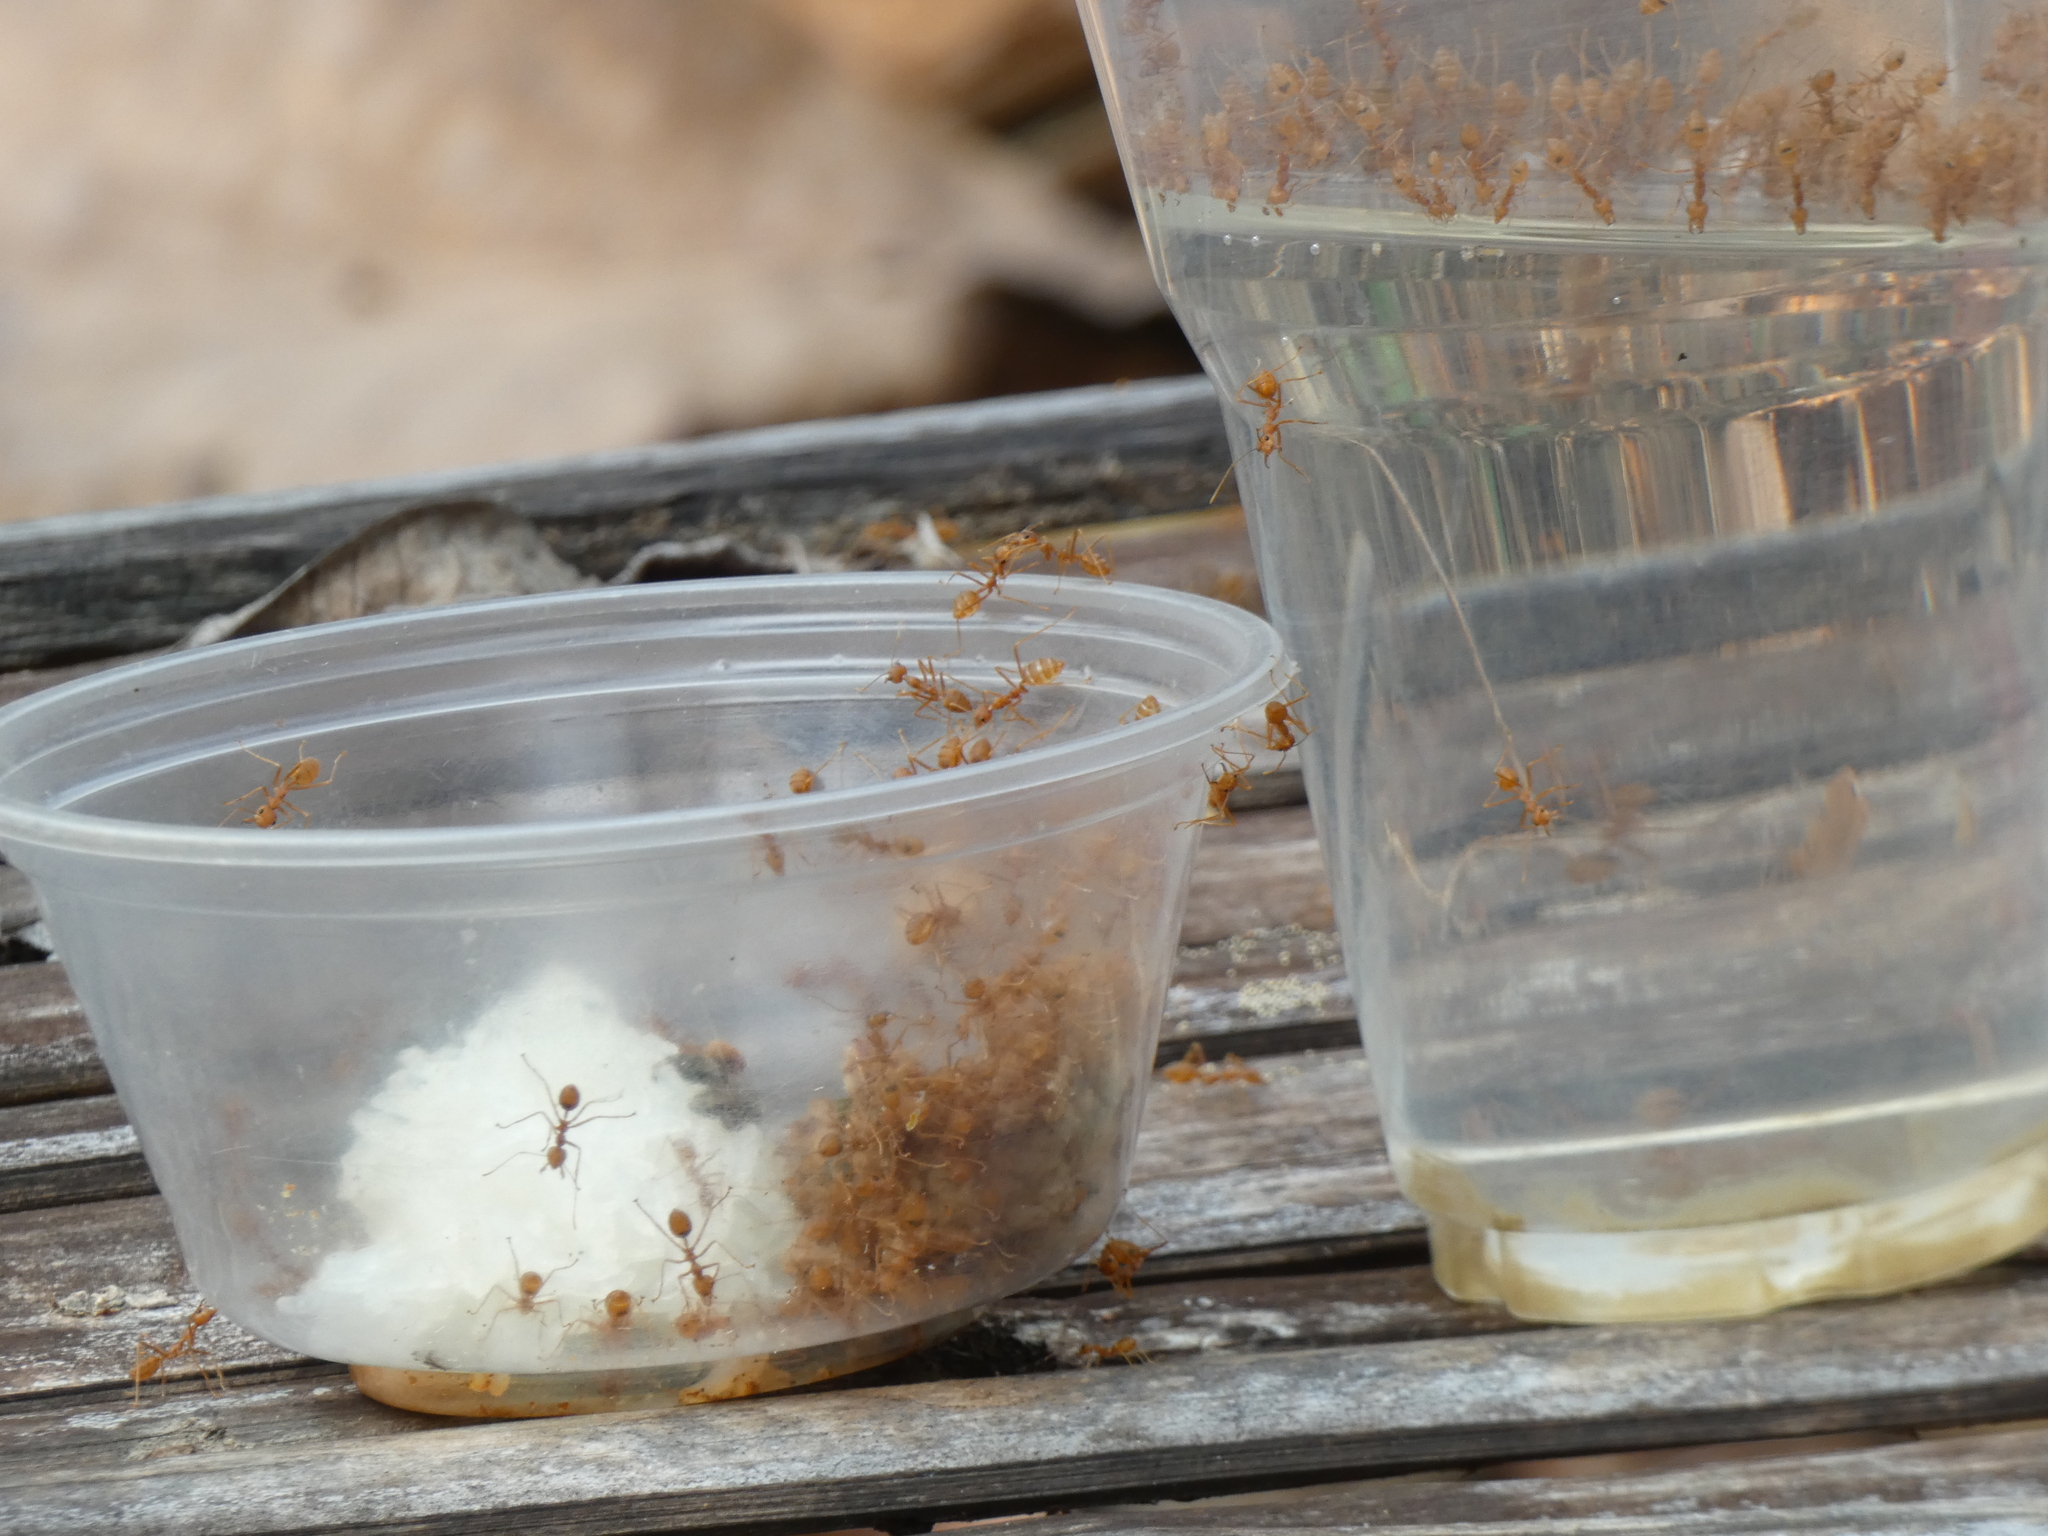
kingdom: Animalia
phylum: Arthropoda
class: Insecta
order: Hymenoptera
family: Formicidae
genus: Oecophylla
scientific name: Oecophylla smaragdina
